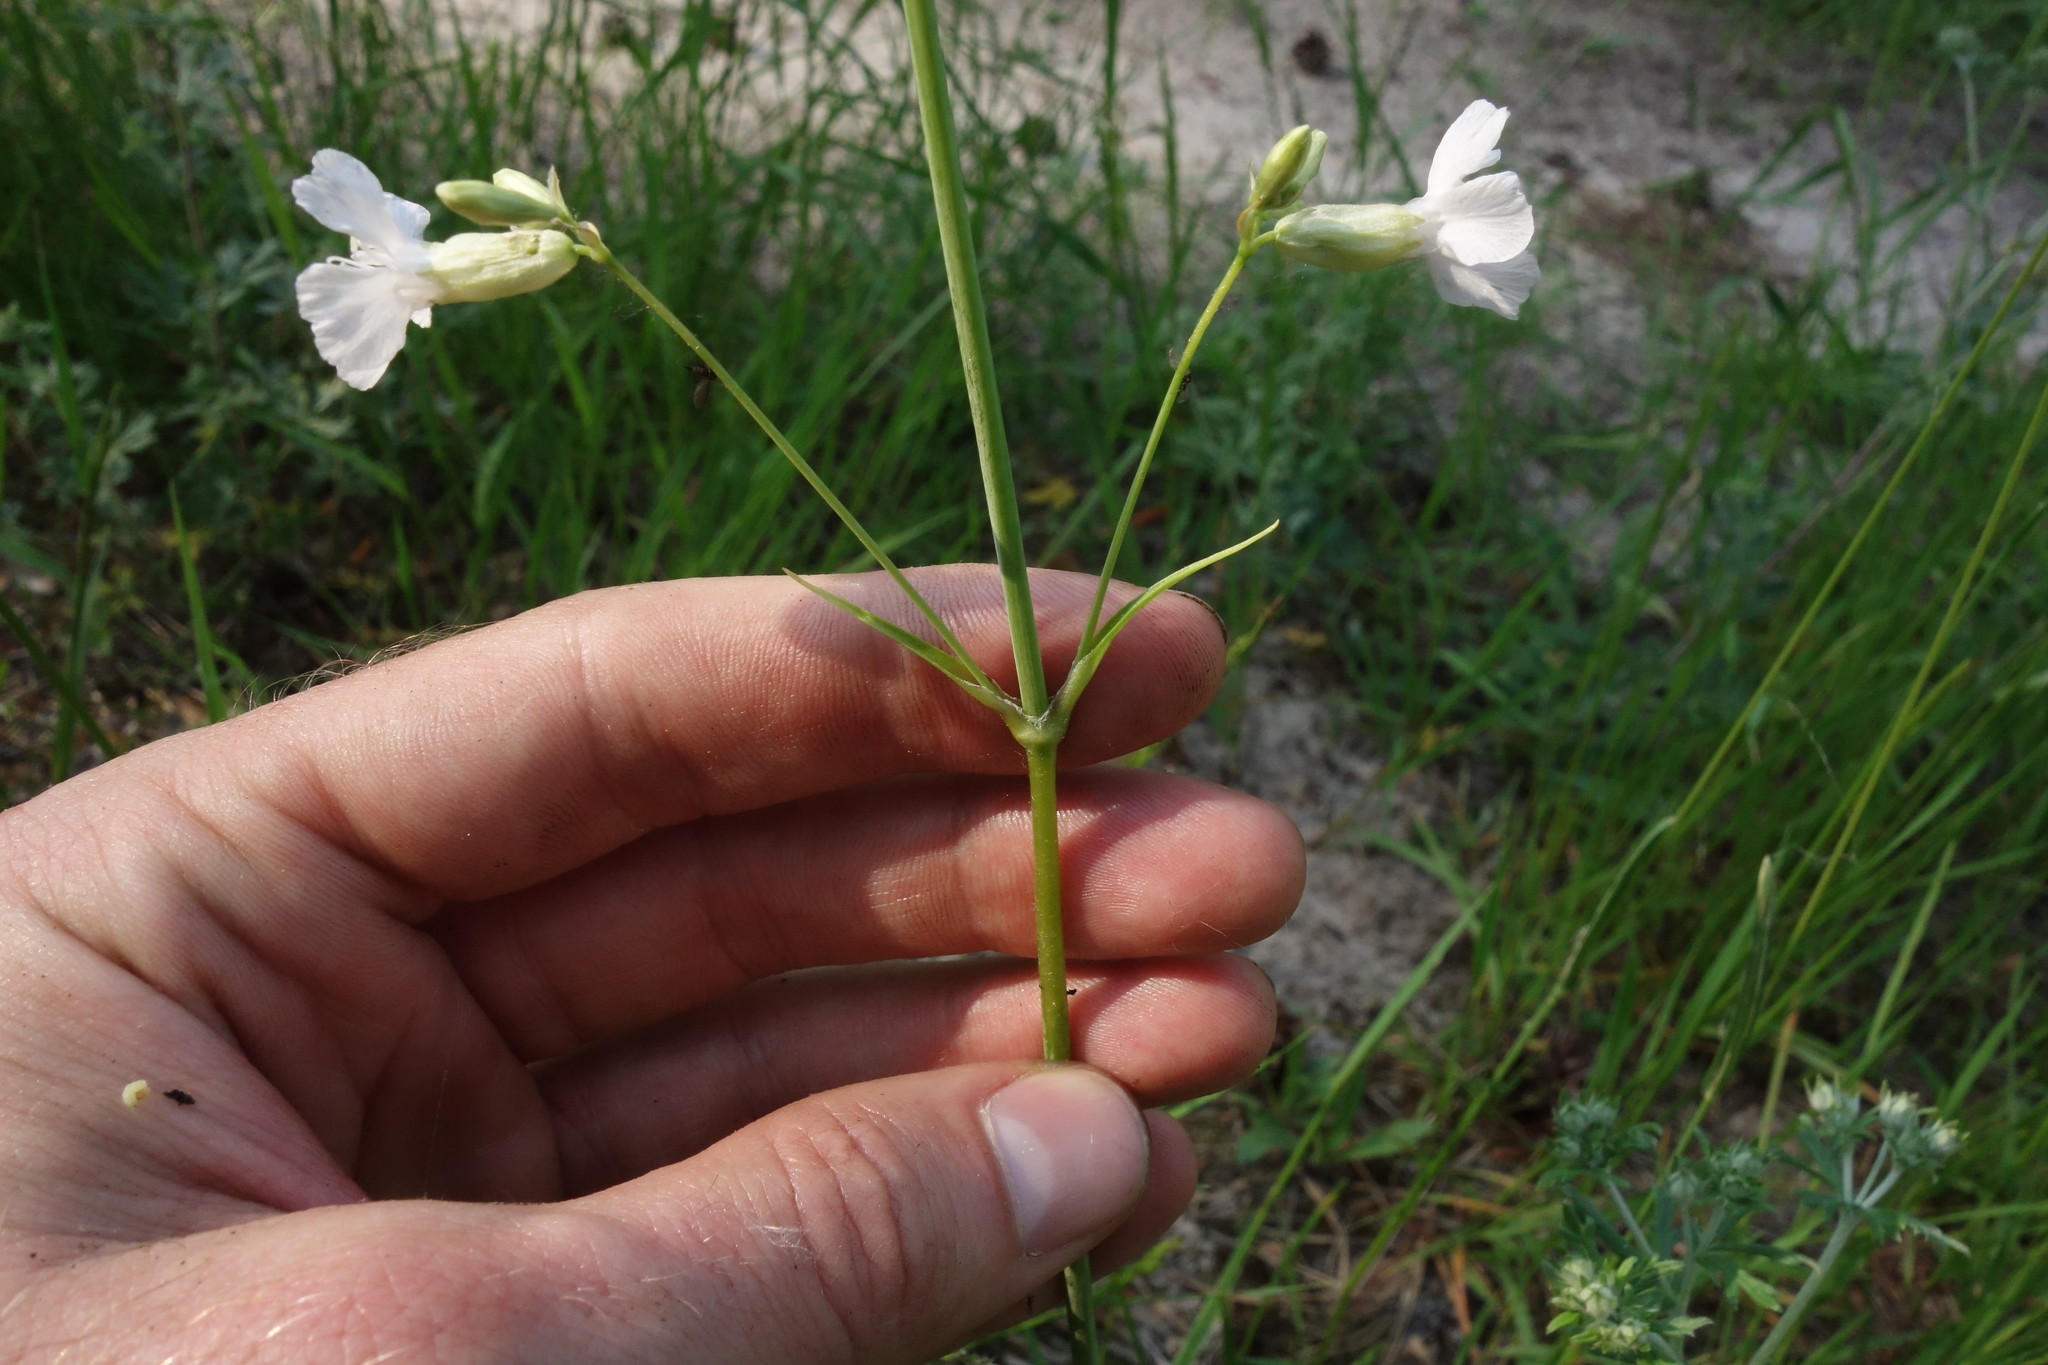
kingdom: Plantae
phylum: Tracheophyta
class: Magnoliopsida
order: Caryophyllales
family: Caryophyllaceae
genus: Viscaria
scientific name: Viscaria vulgaris
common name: Clammy campion
